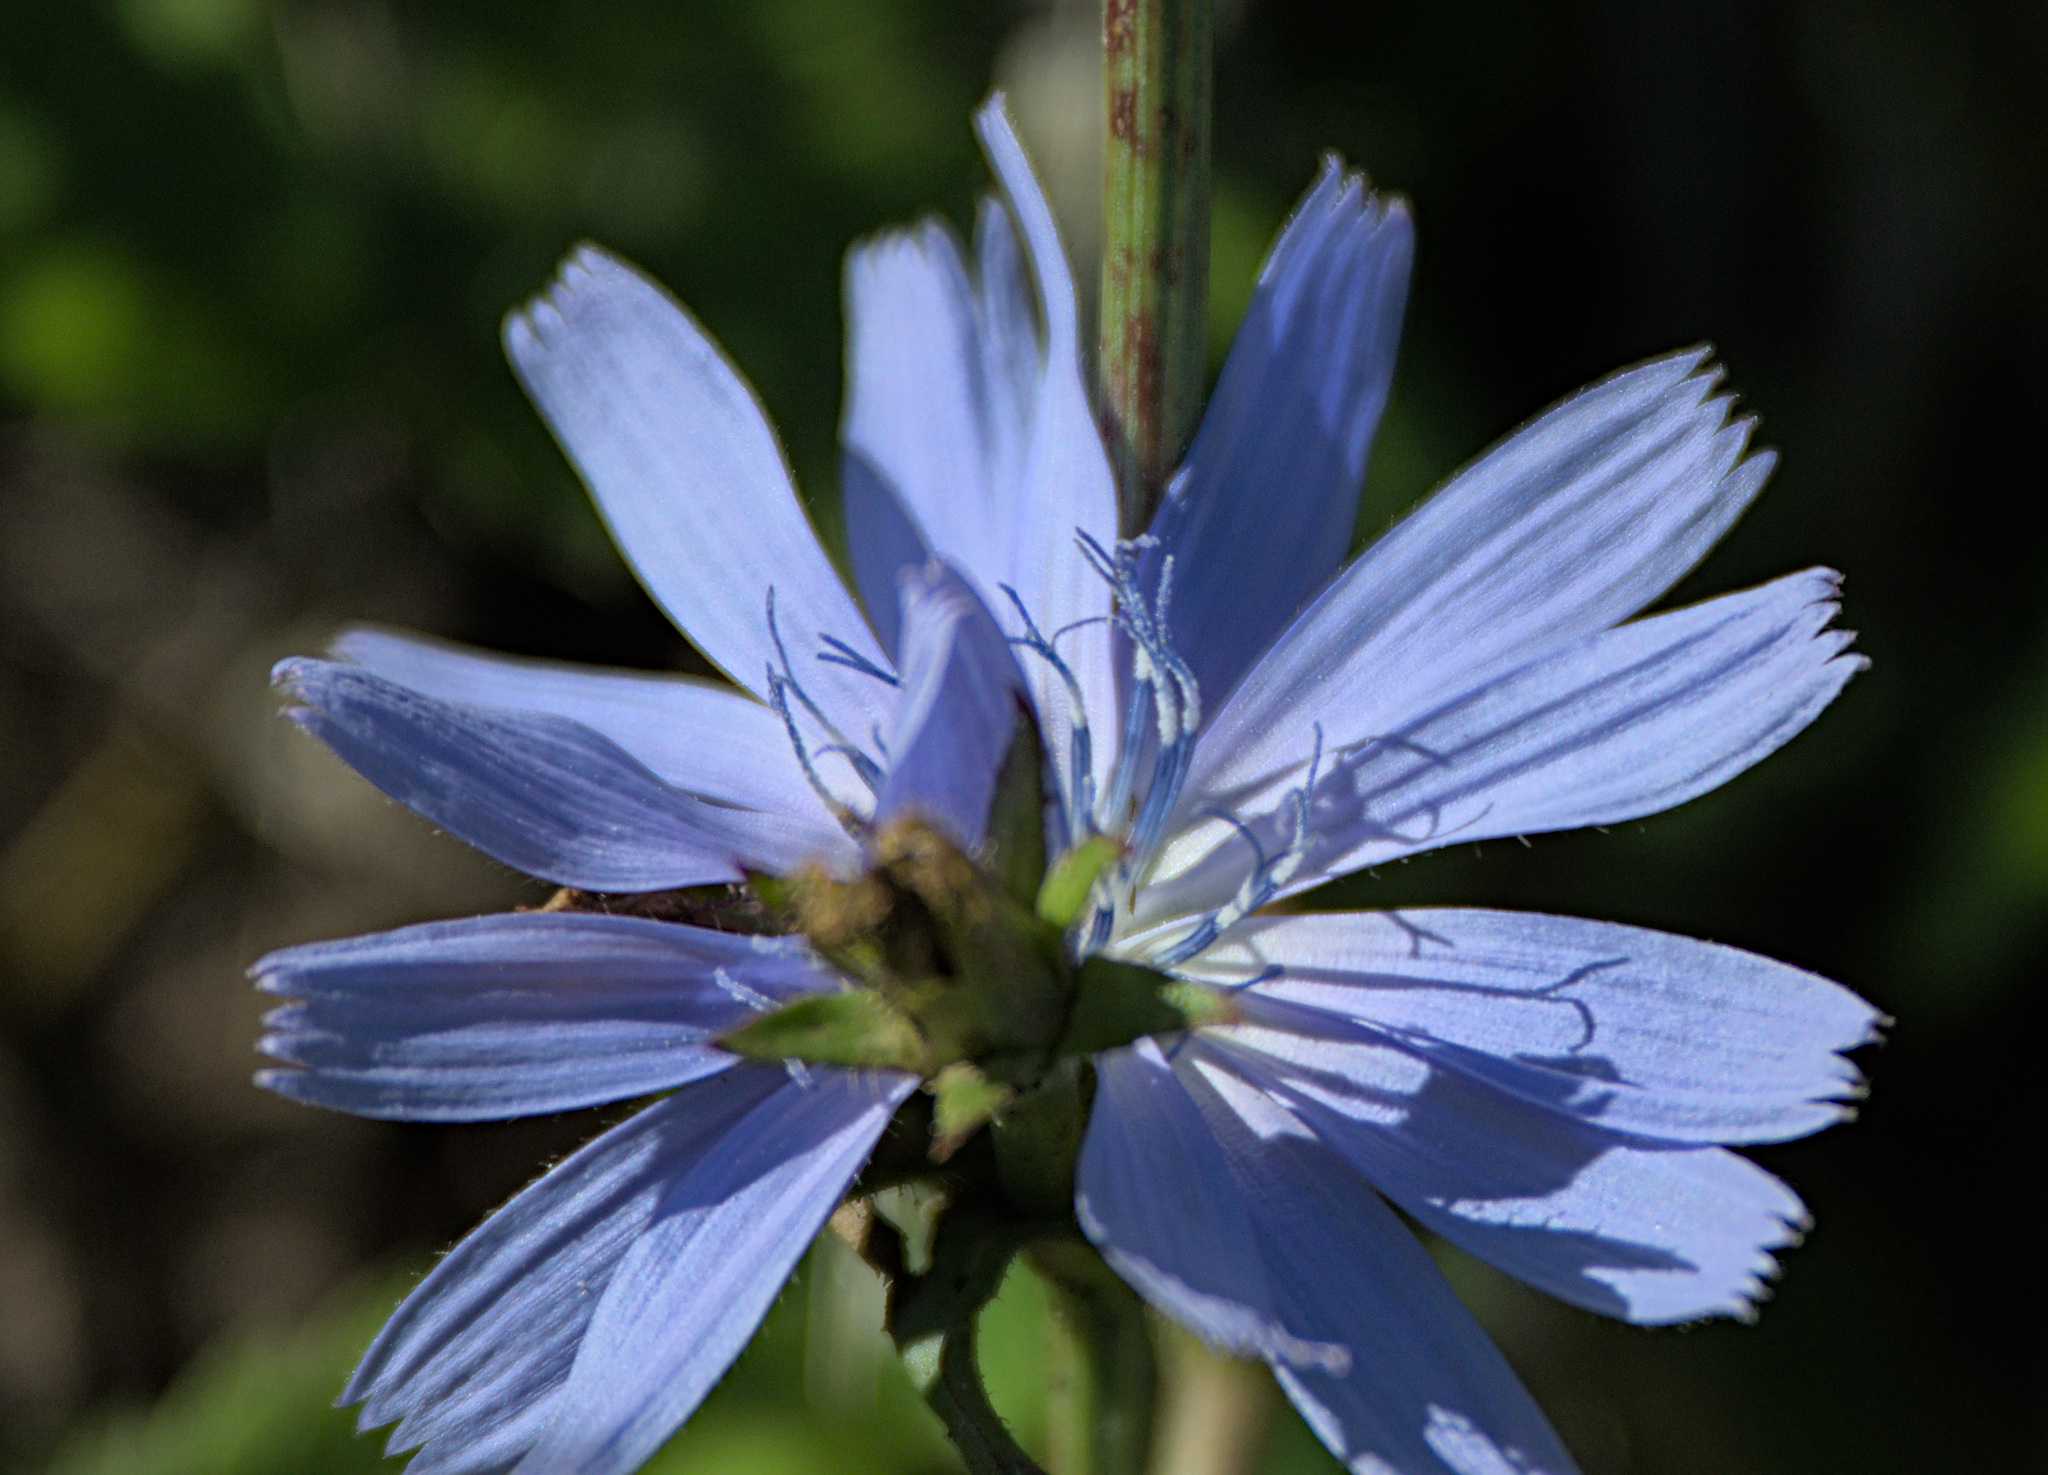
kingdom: Plantae
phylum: Tracheophyta
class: Magnoliopsida
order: Asterales
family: Asteraceae
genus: Cichorium
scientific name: Cichorium intybus
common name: Chicory
